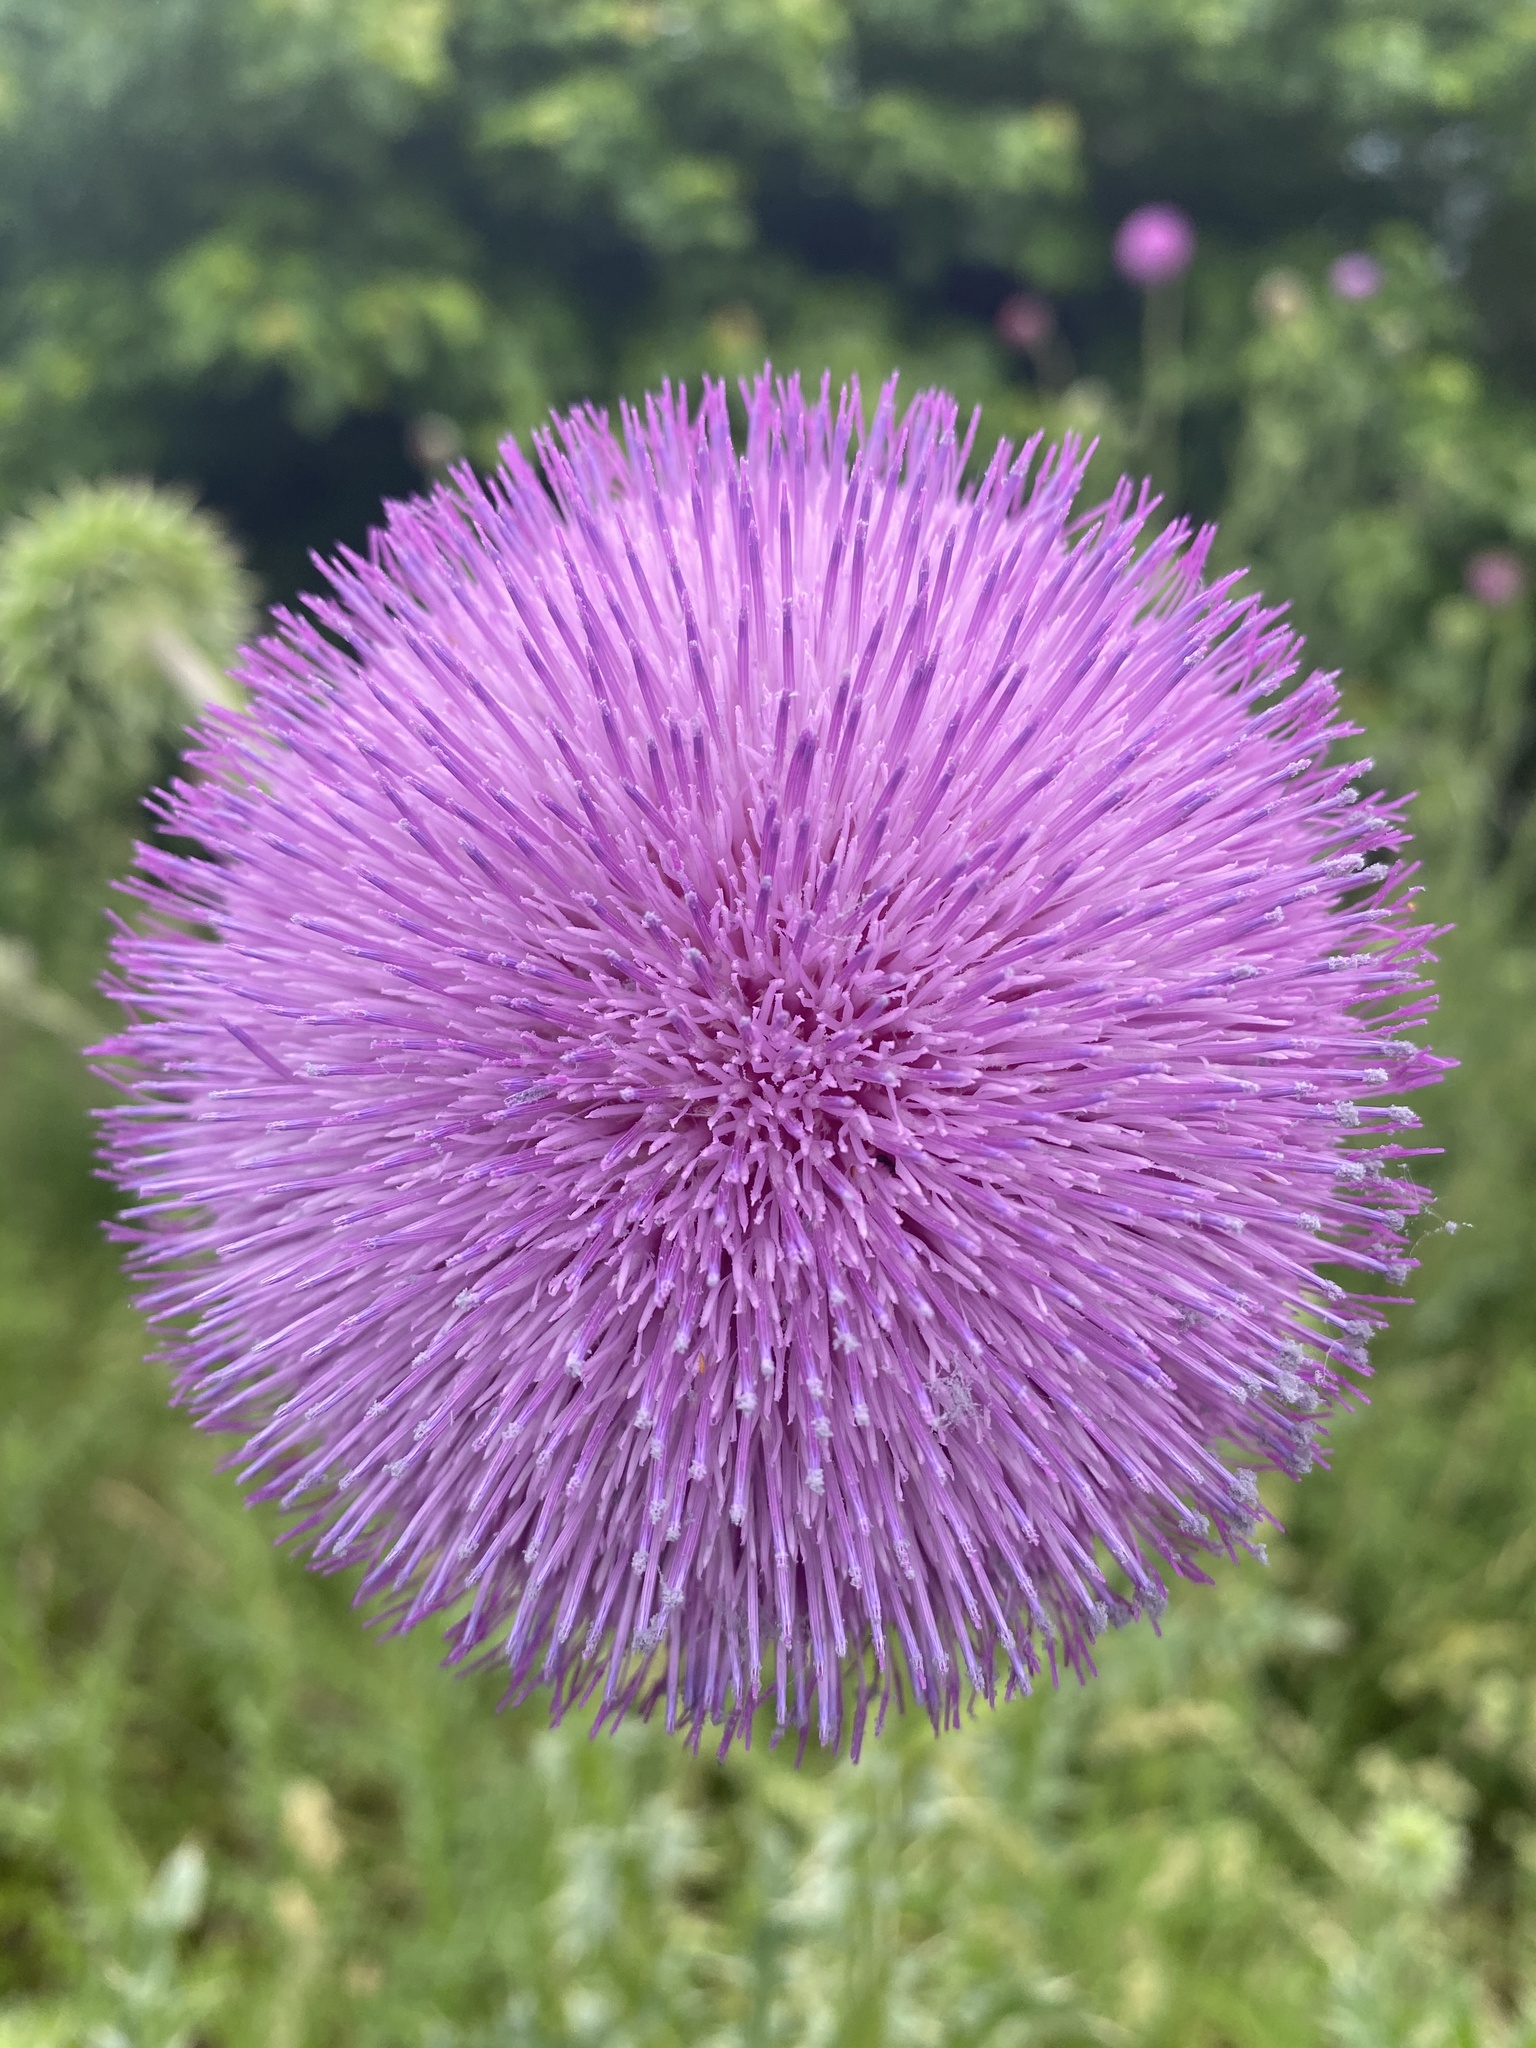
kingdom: Plantae
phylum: Tracheophyta
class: Magnoliopsida
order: Asterales
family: Asteraceae
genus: Carduus
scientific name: Carduus nutans
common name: Musk thistle
